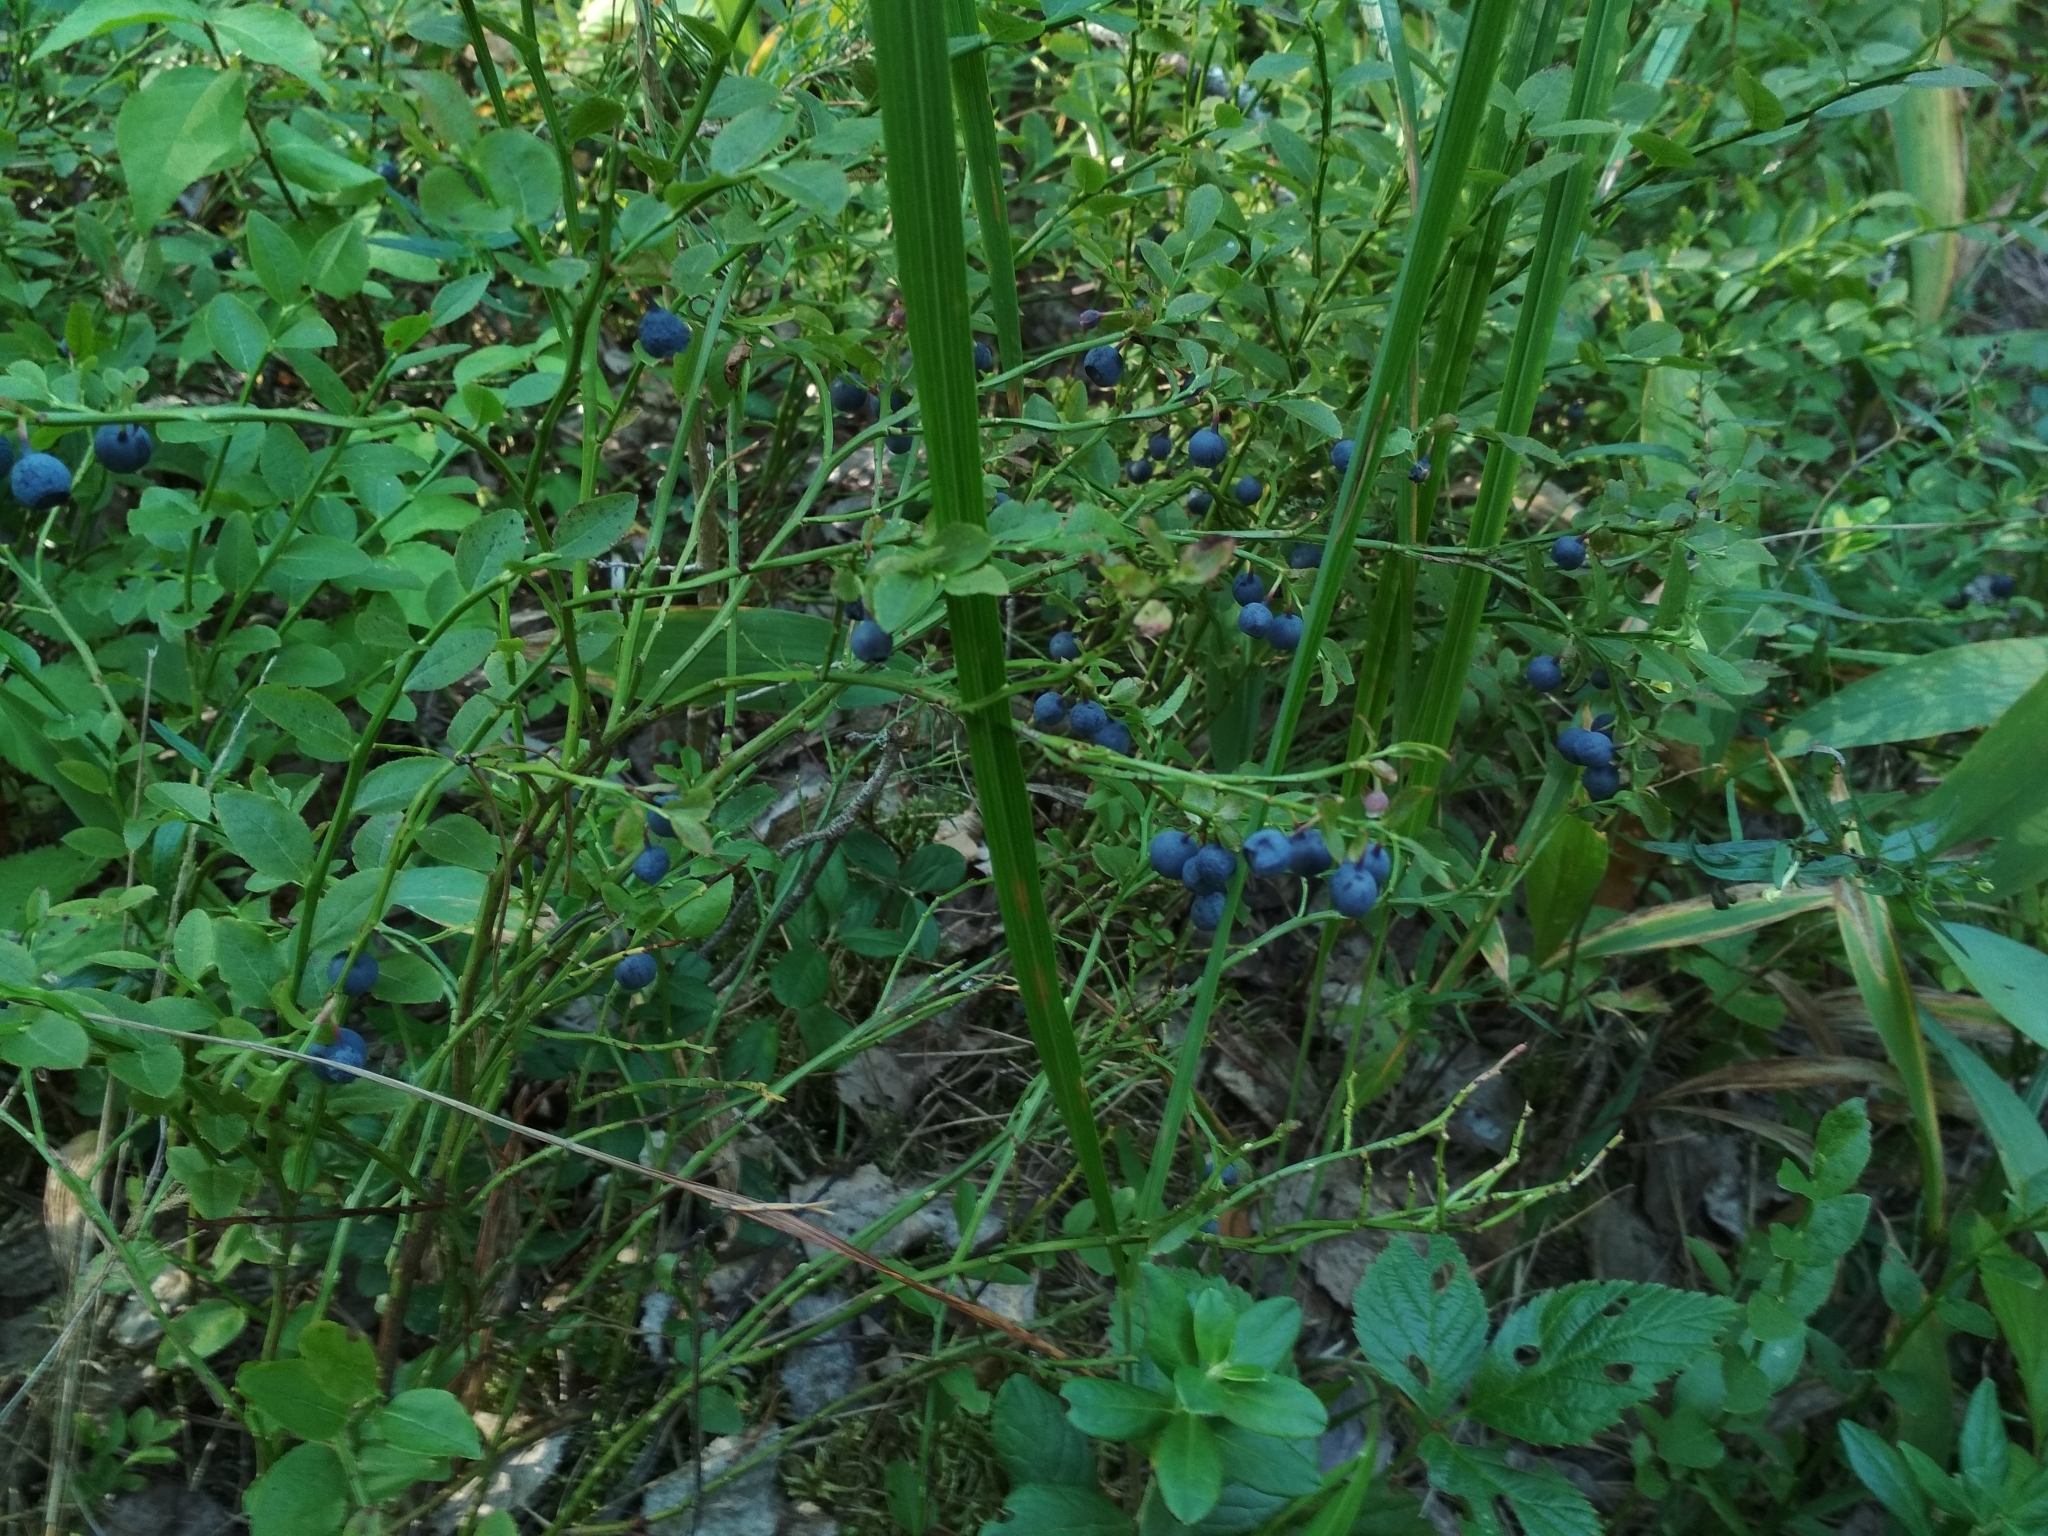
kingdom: Plantae
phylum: Tracheophyta
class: Magnoliopsida
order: Ericales
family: Ericaceae
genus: Vaccinium
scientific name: Vaccinium myrtillus
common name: Bilberry
